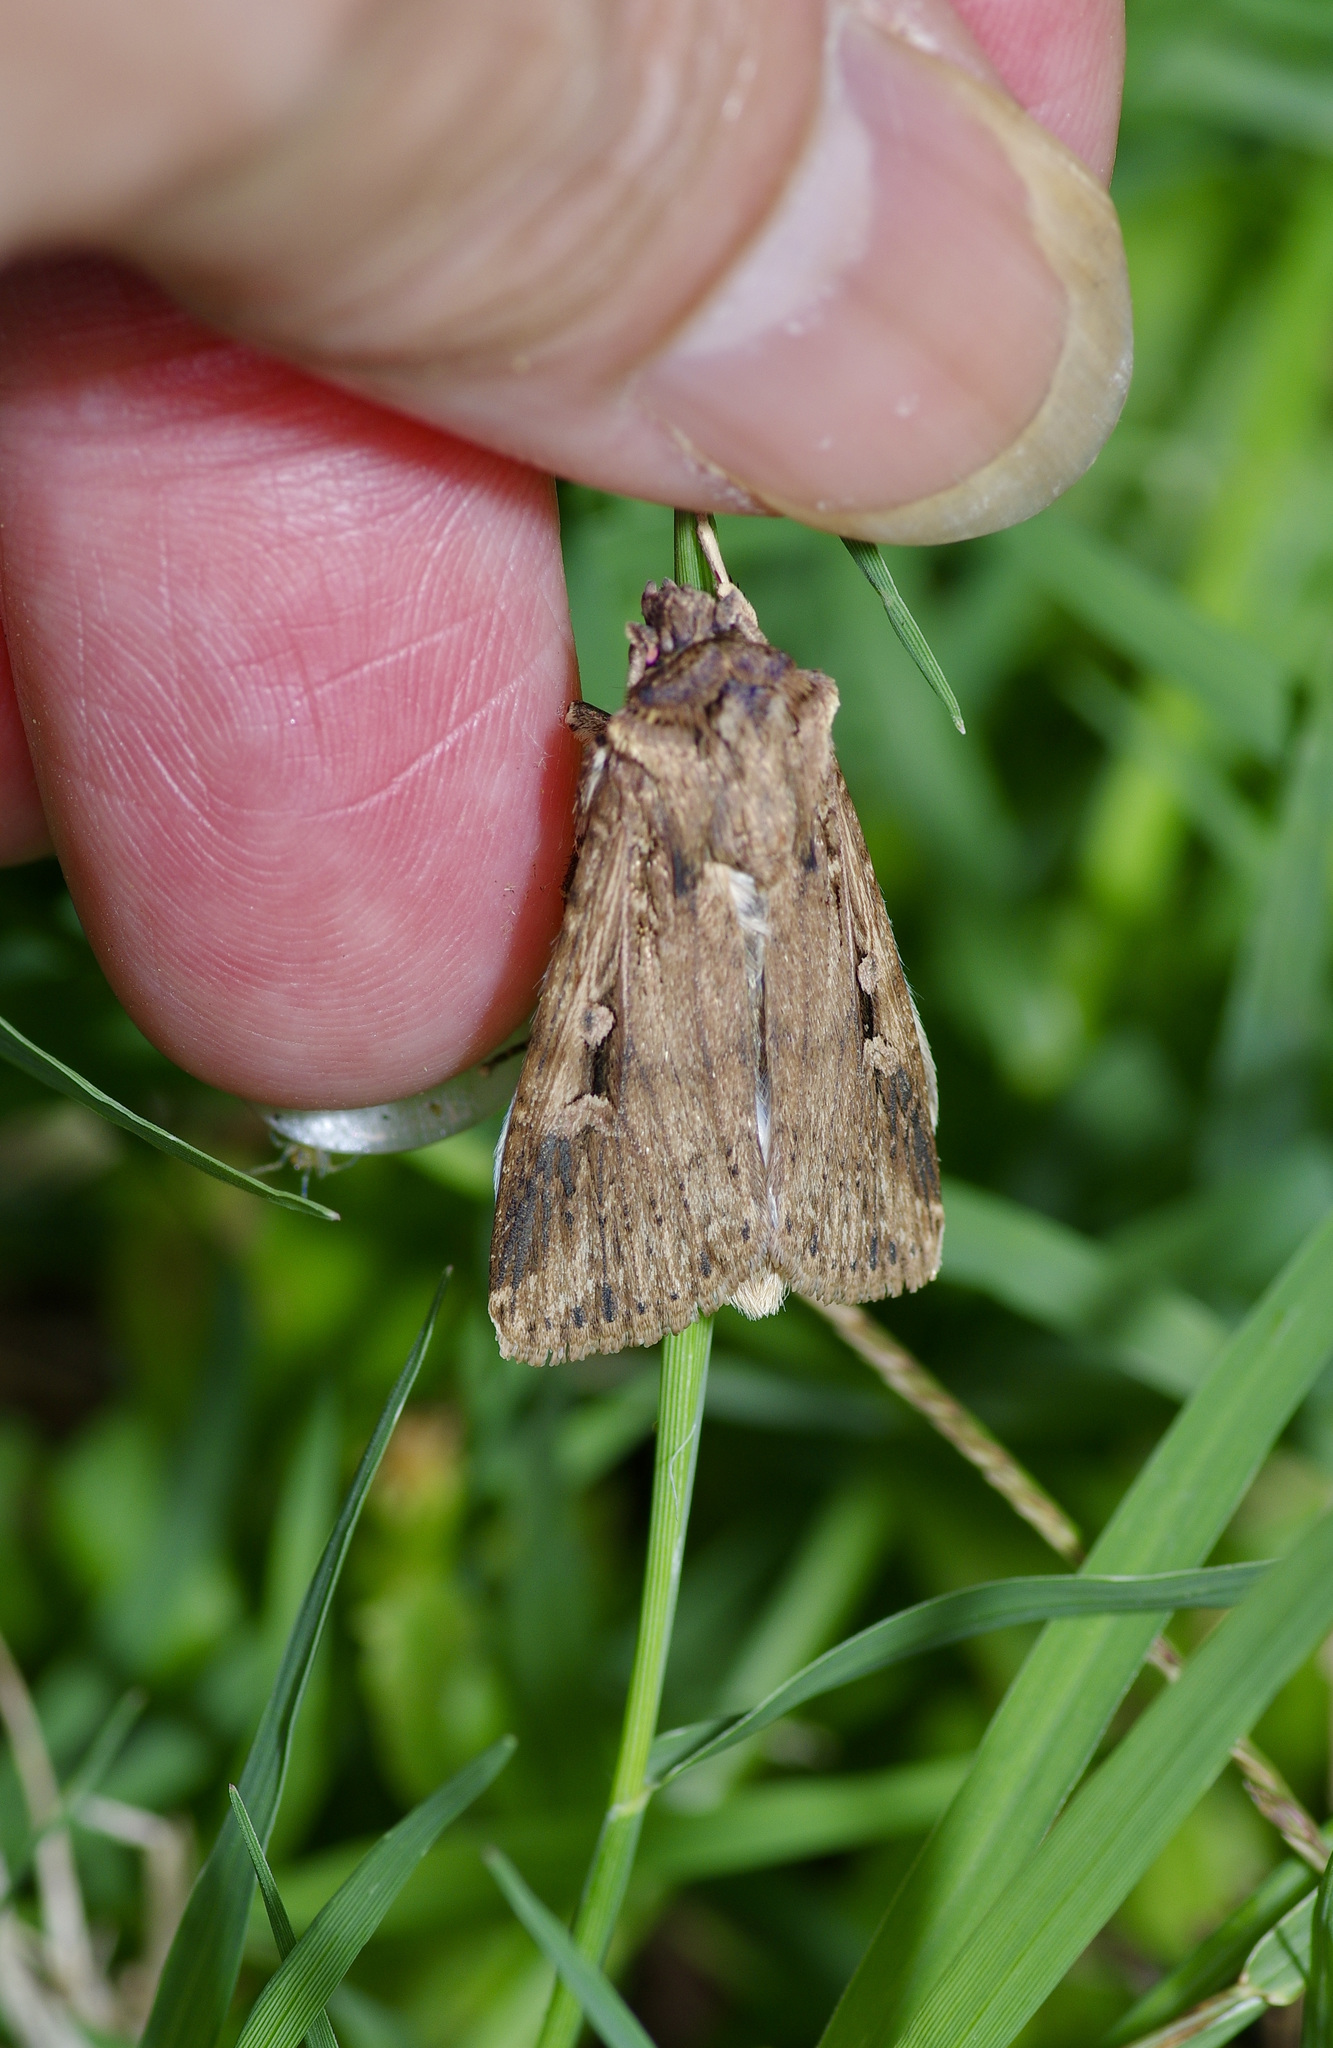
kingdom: Animalia
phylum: Arthropoda
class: Insecta
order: Lepidoptera
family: Noctuidae
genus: Feltia
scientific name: Feltia subterranea
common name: Granulate cutworm
